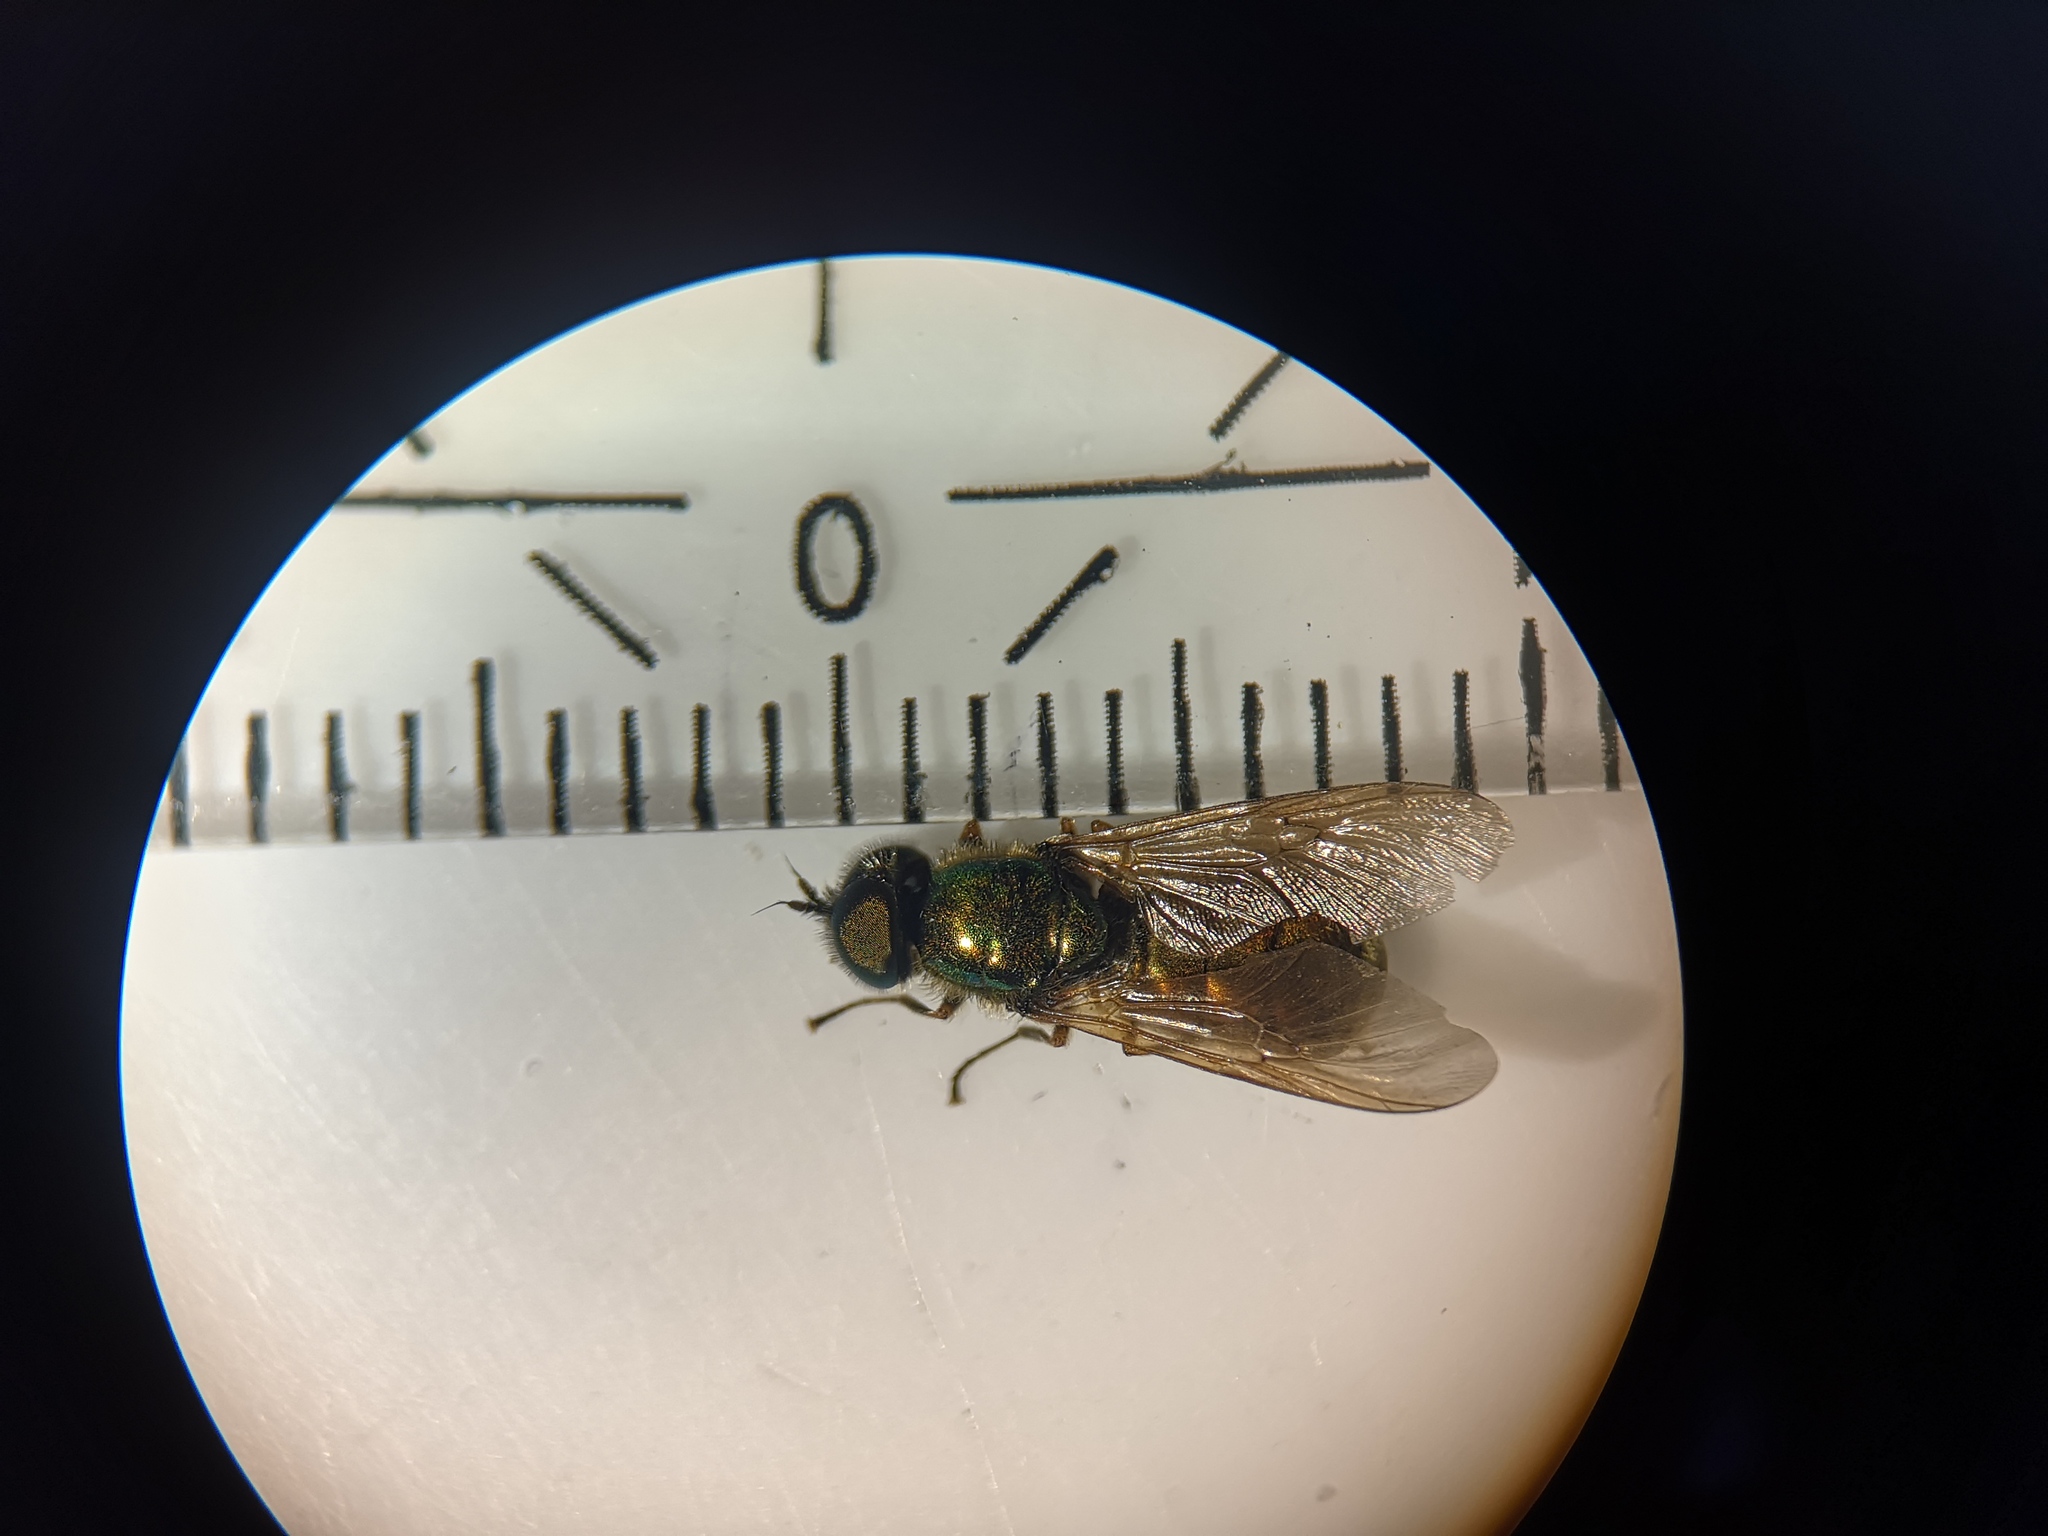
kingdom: Animalia
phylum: Arthropoda
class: Insecta
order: Diptera
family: Stratiomyidae
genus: Chloromyia
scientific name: Chloromyia formosa
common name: Soldier fly
